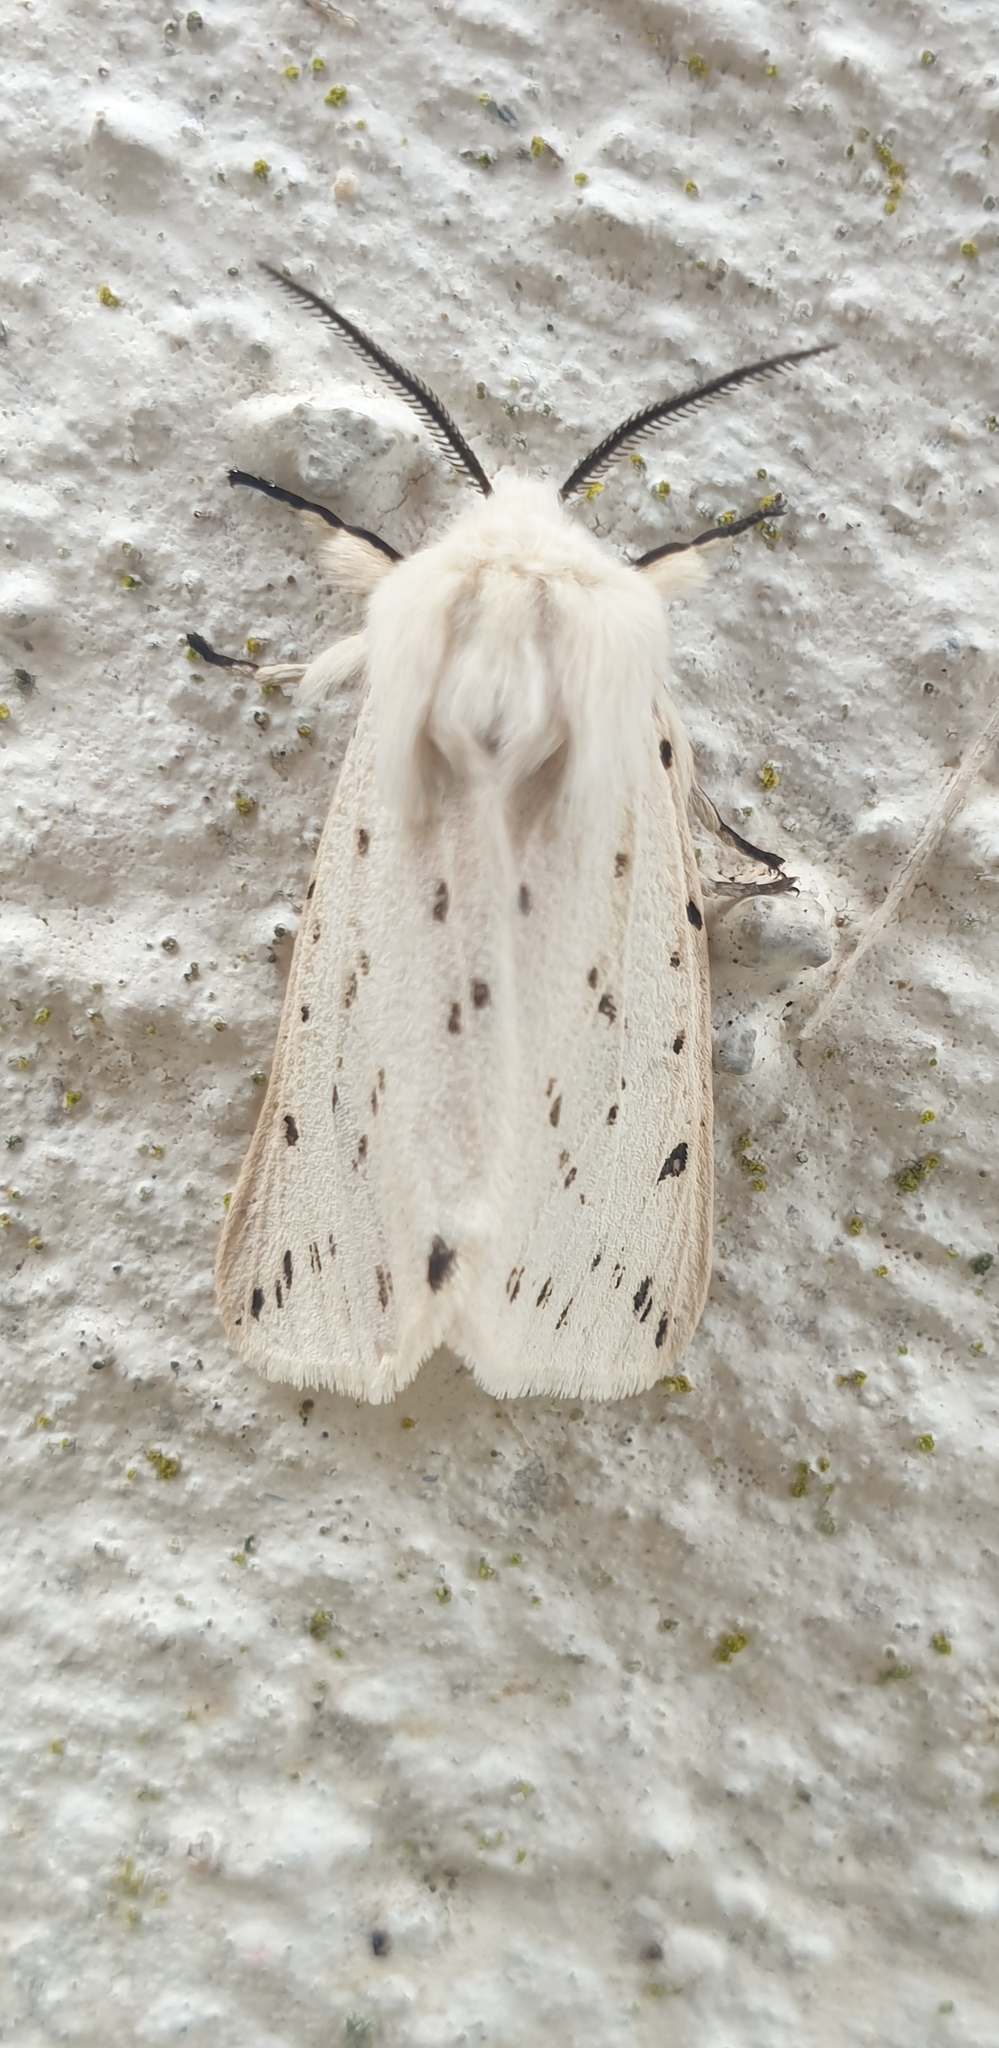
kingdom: Animalia
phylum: Arthropoda
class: Insecta
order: Lepidoptera
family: Erebidae
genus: Spilosoma
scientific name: Spilosoma lubricipeda
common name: White ermine
